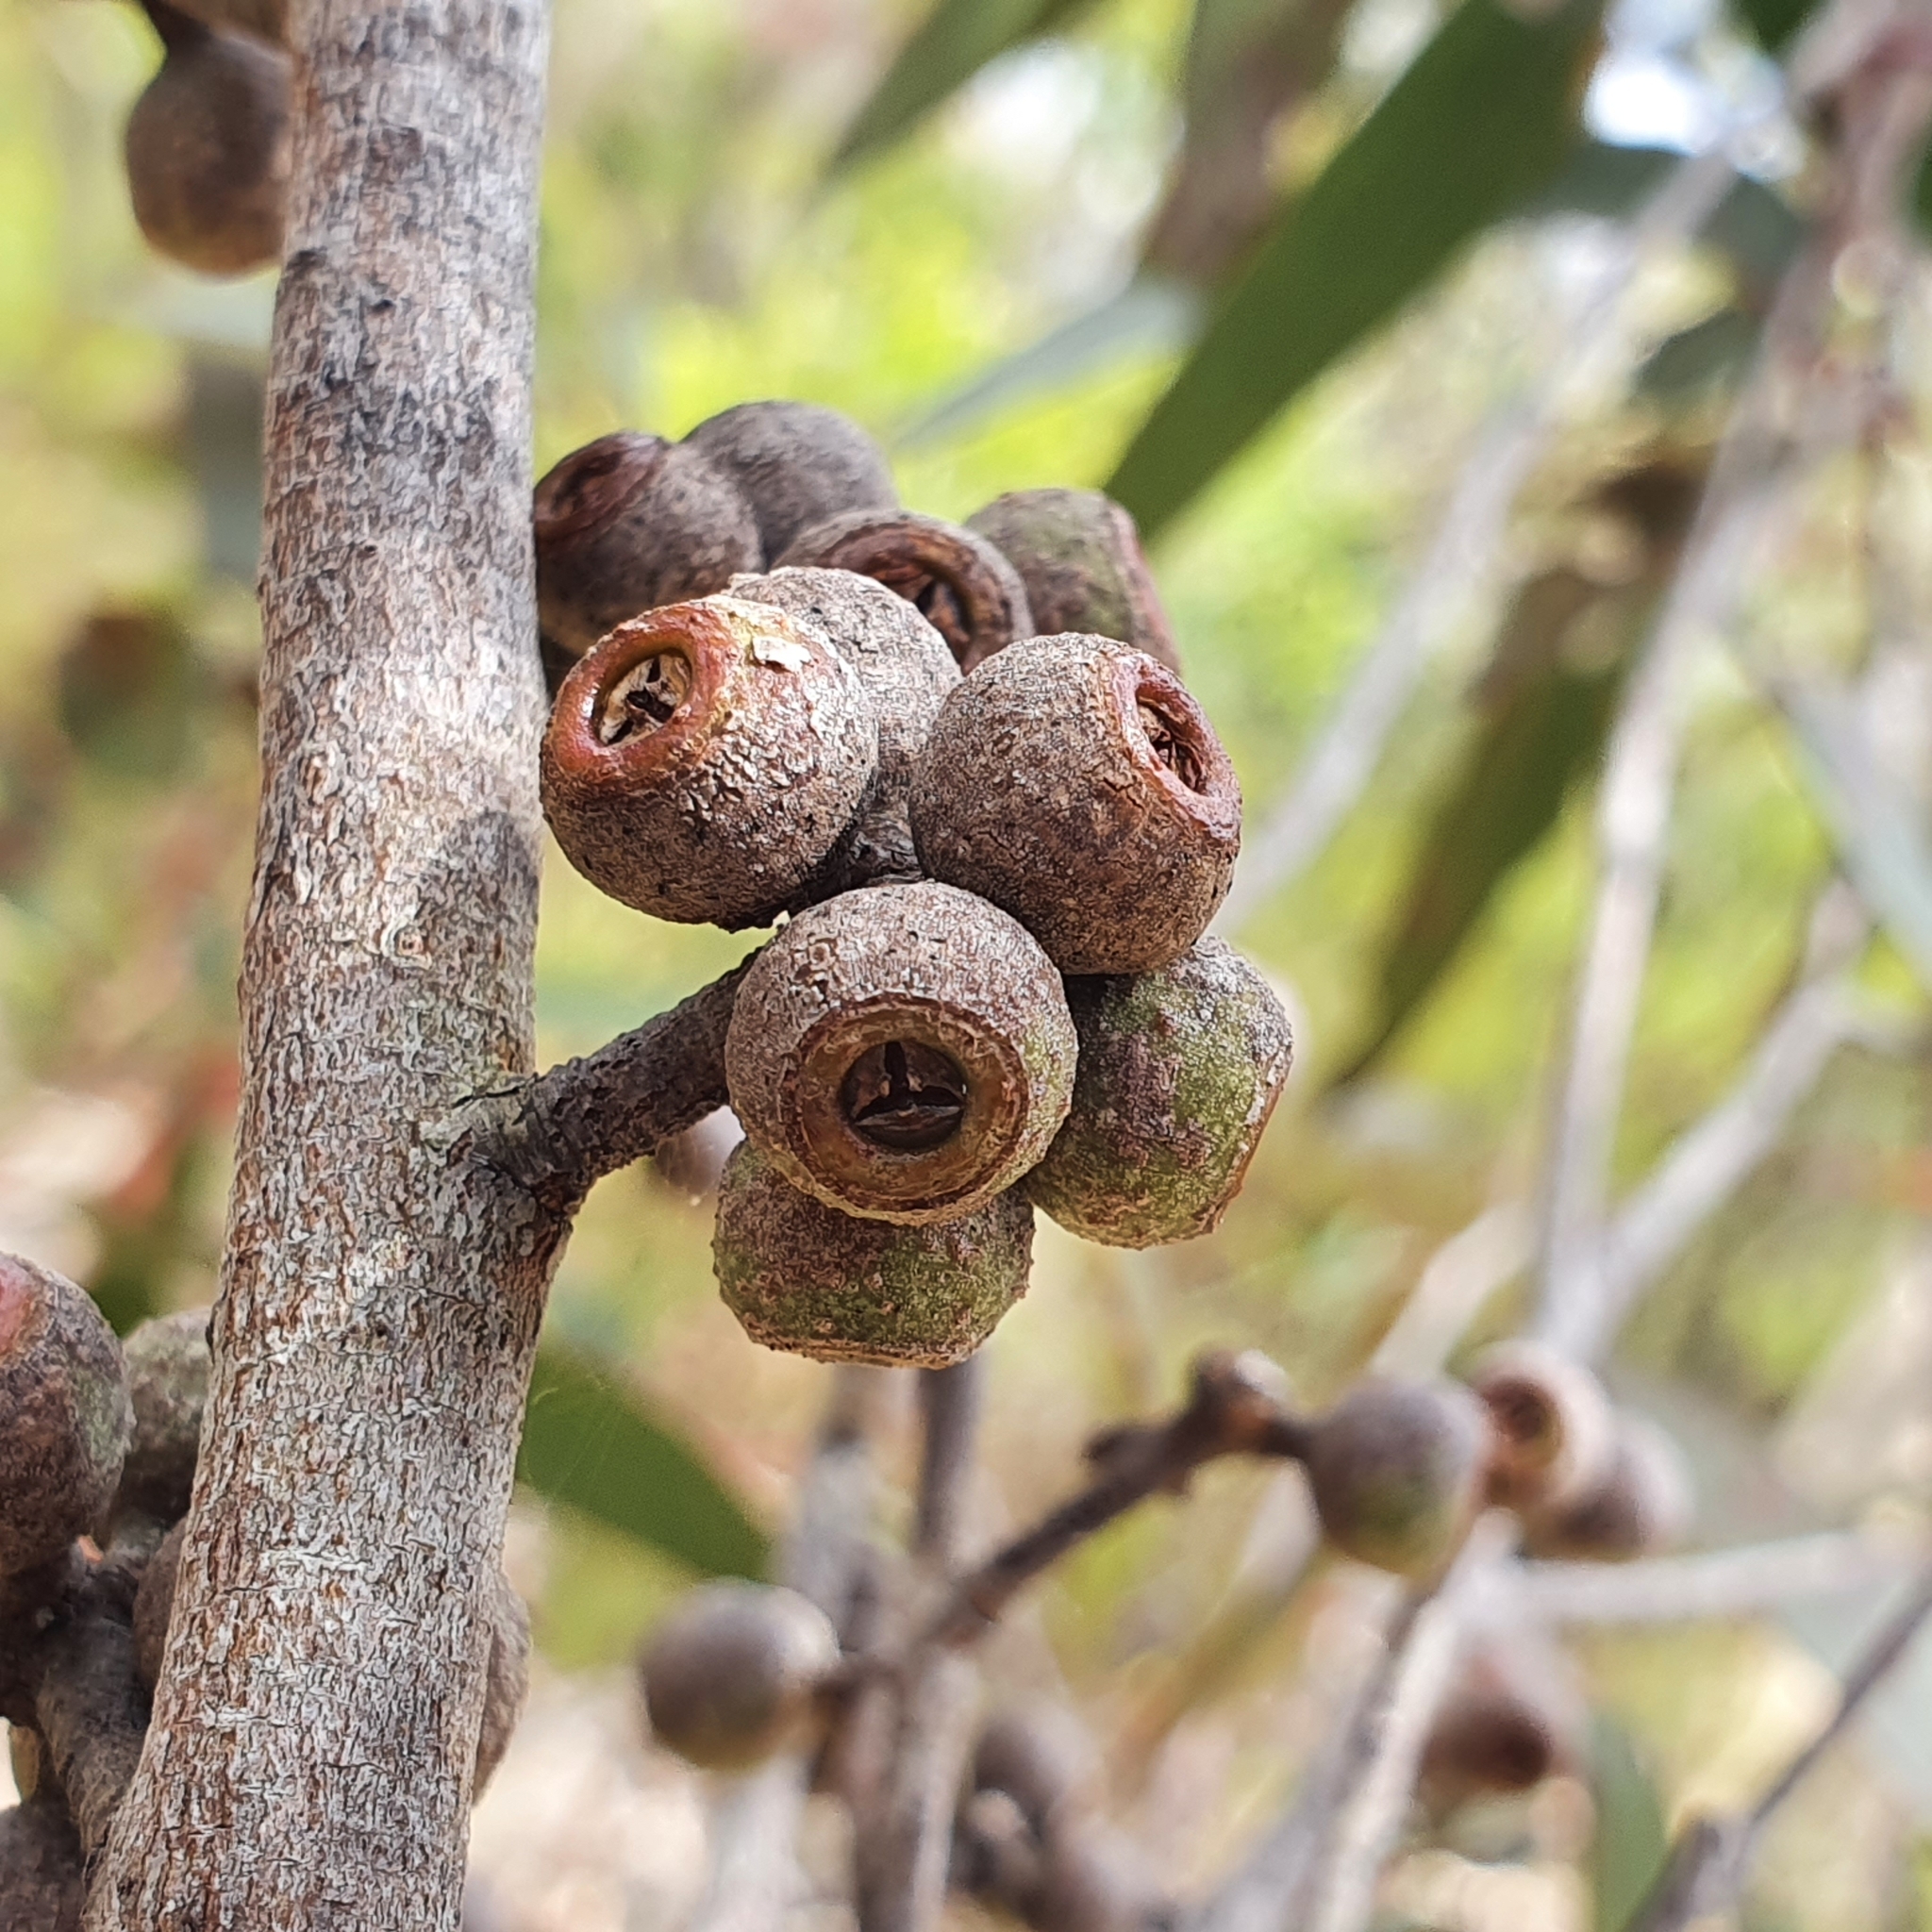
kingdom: Plantae
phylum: Tracheophyta
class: Magnoliopsida
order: Myrtales
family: Myrtaceae
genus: Eucalyptus
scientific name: Eucalyptus capitellata
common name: Brown-stringy-bark
